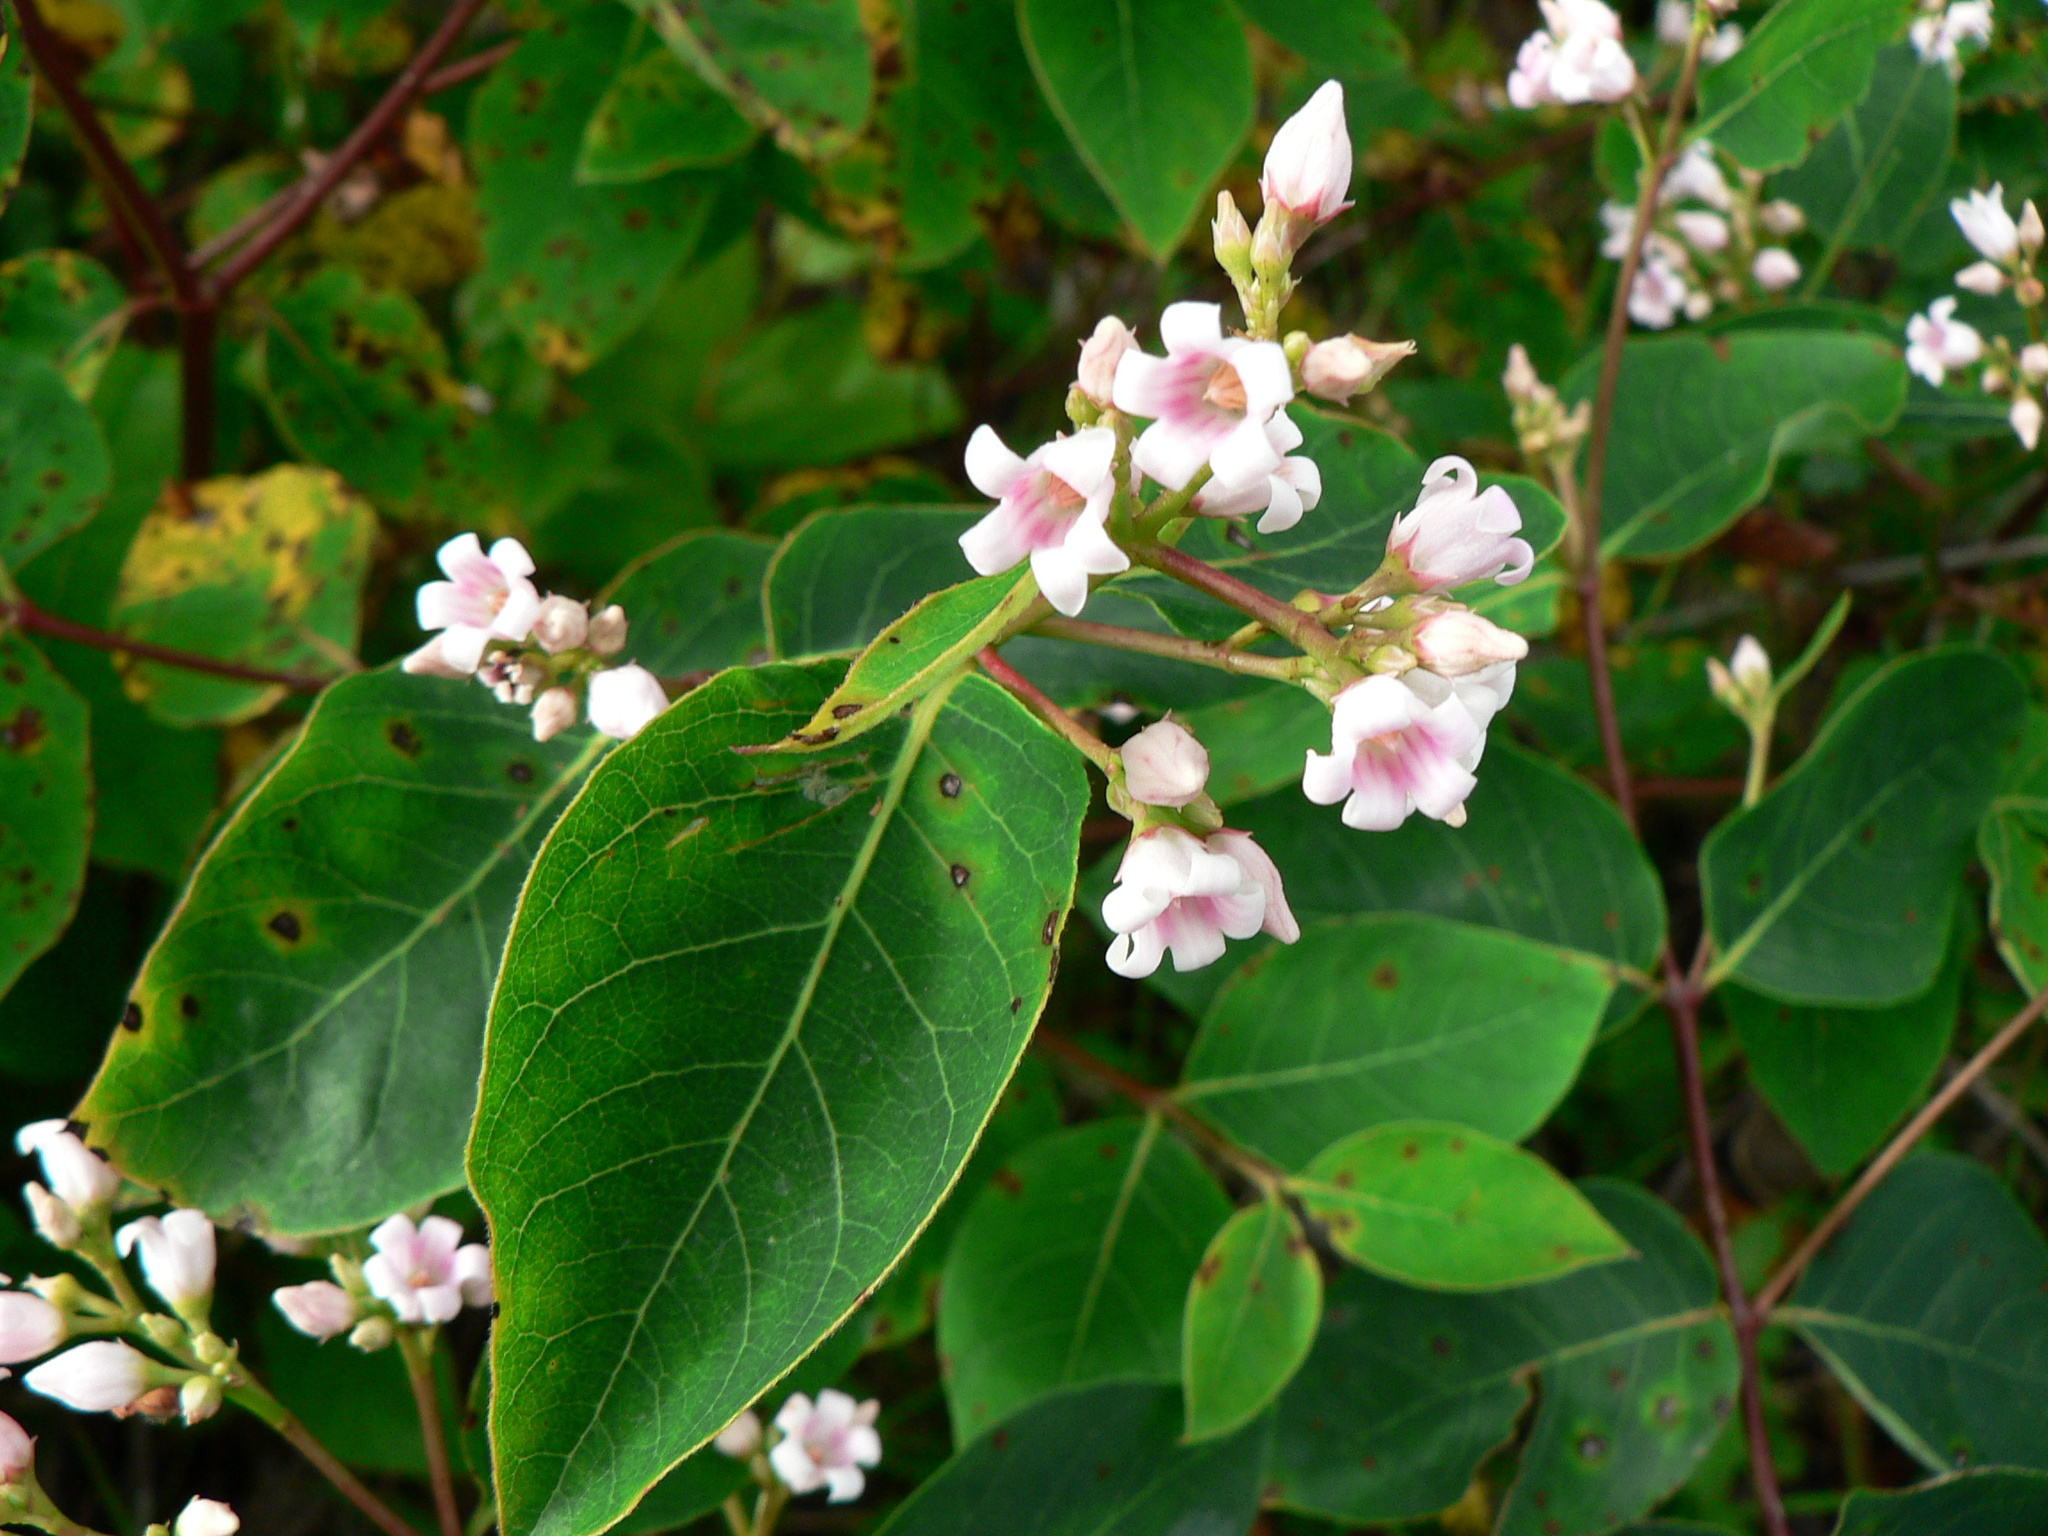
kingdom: Plantae
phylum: Tracheophyta
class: Magnoliopsida
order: Gentianales
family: Apocynaceae
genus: Apocynum
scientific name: Apocynum androsaemifolium
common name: Spreading dogbane
